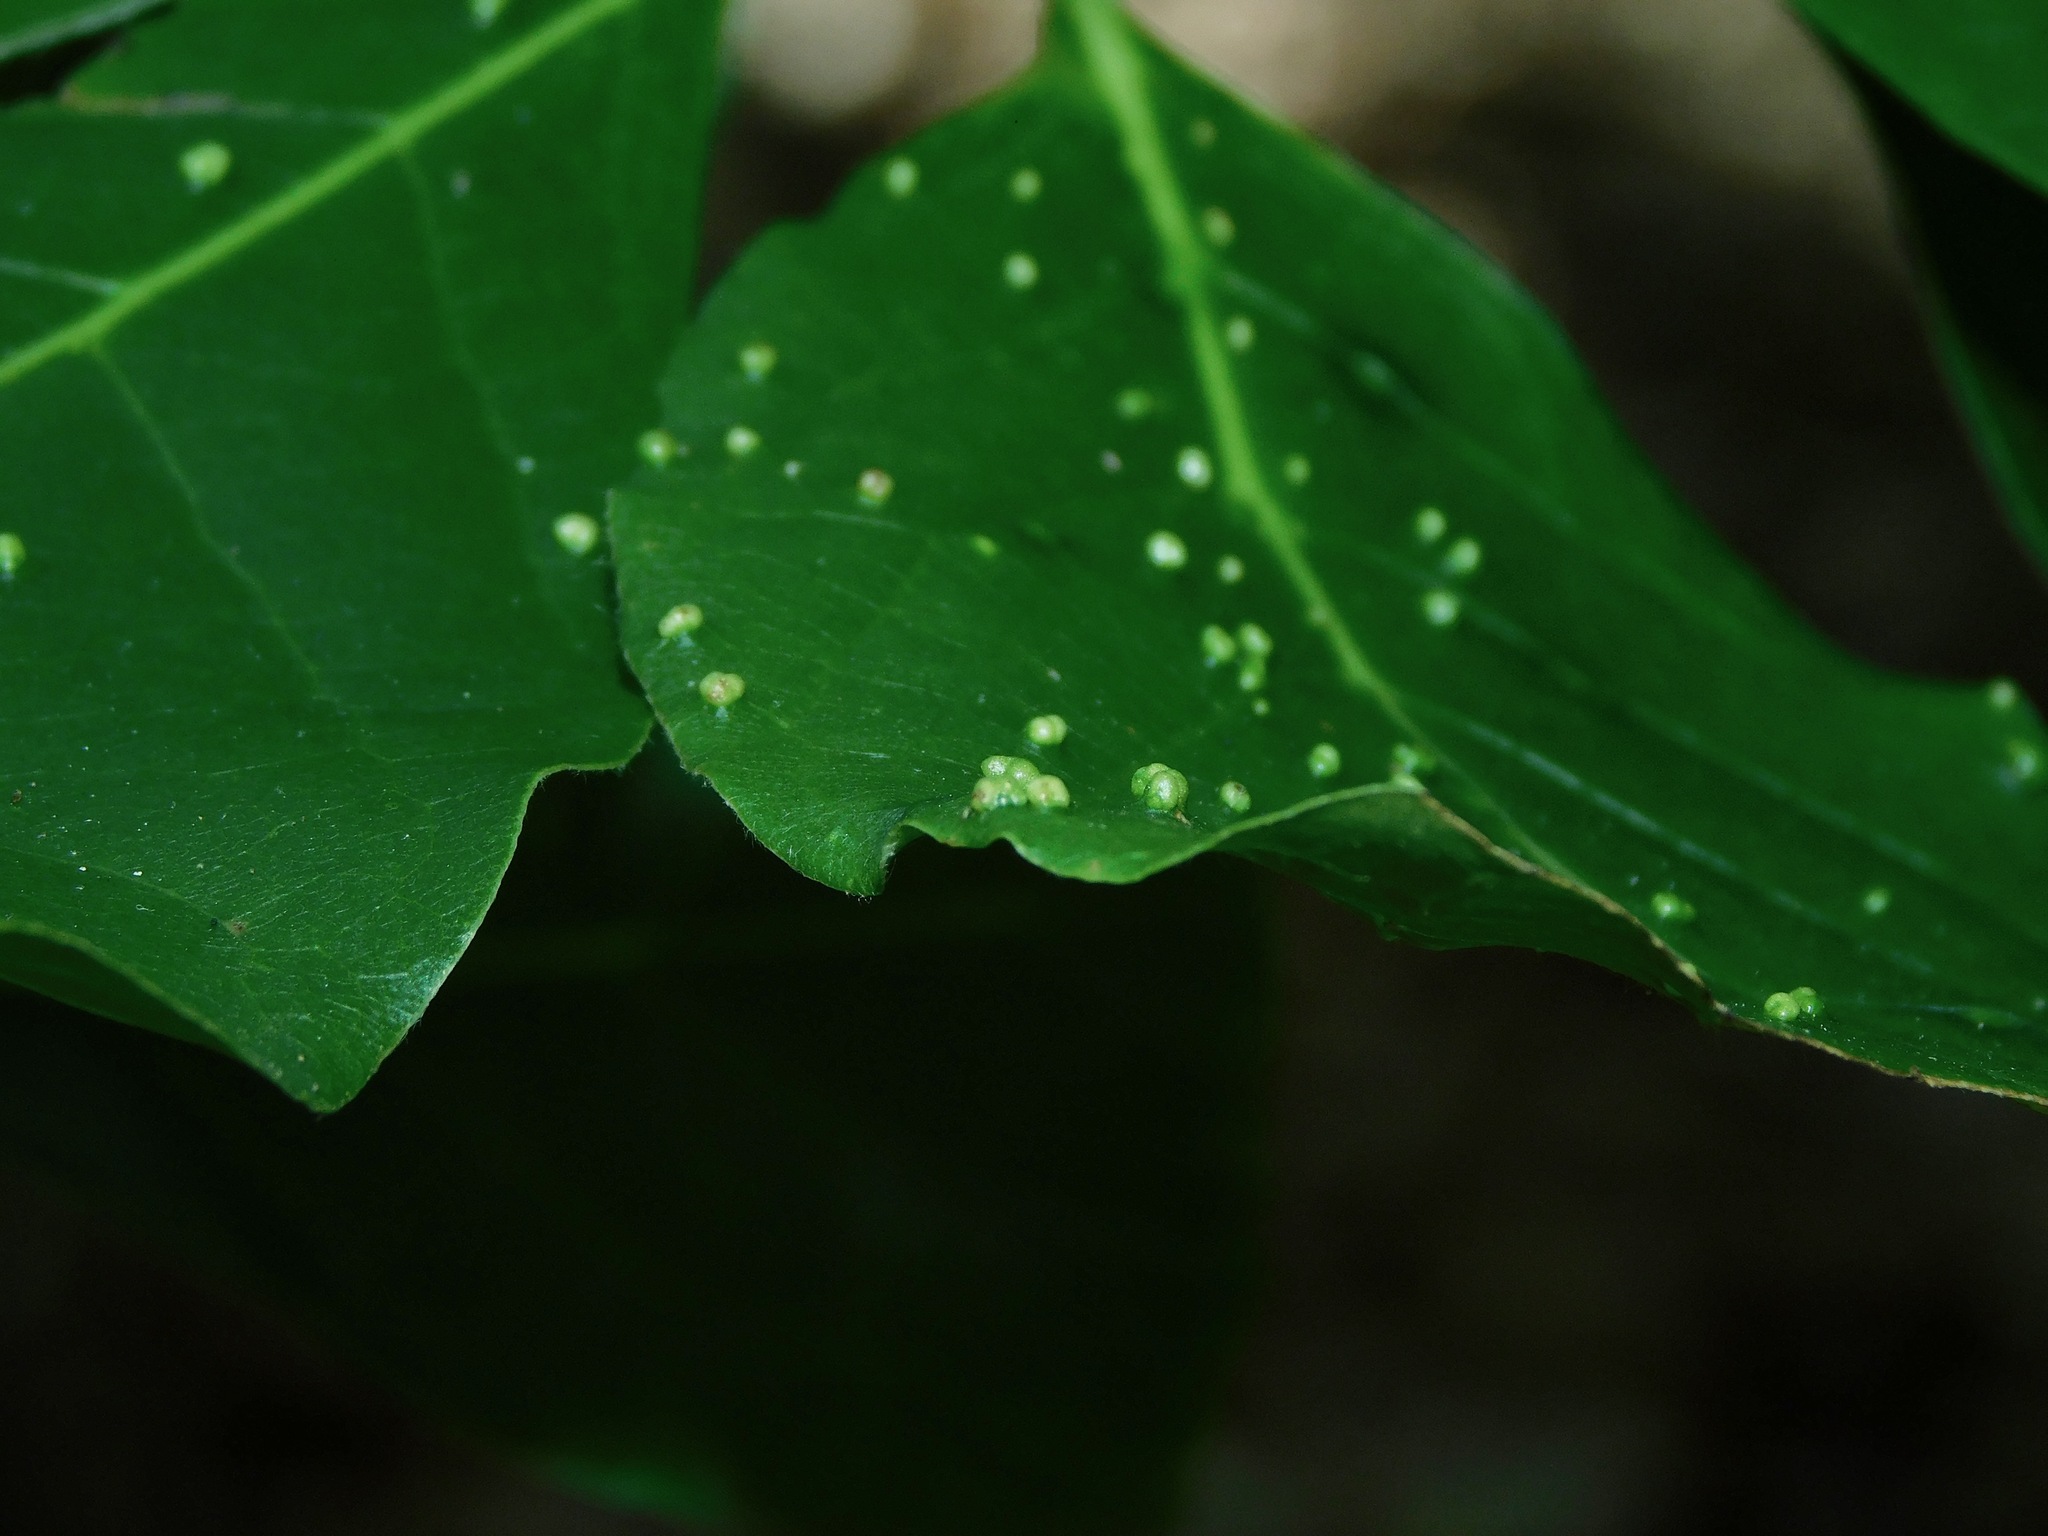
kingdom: Animalia
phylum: Arthropoda
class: Arachnida
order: Trombidiformes
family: Eriophyidae
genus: Aceria
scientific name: Aceria
